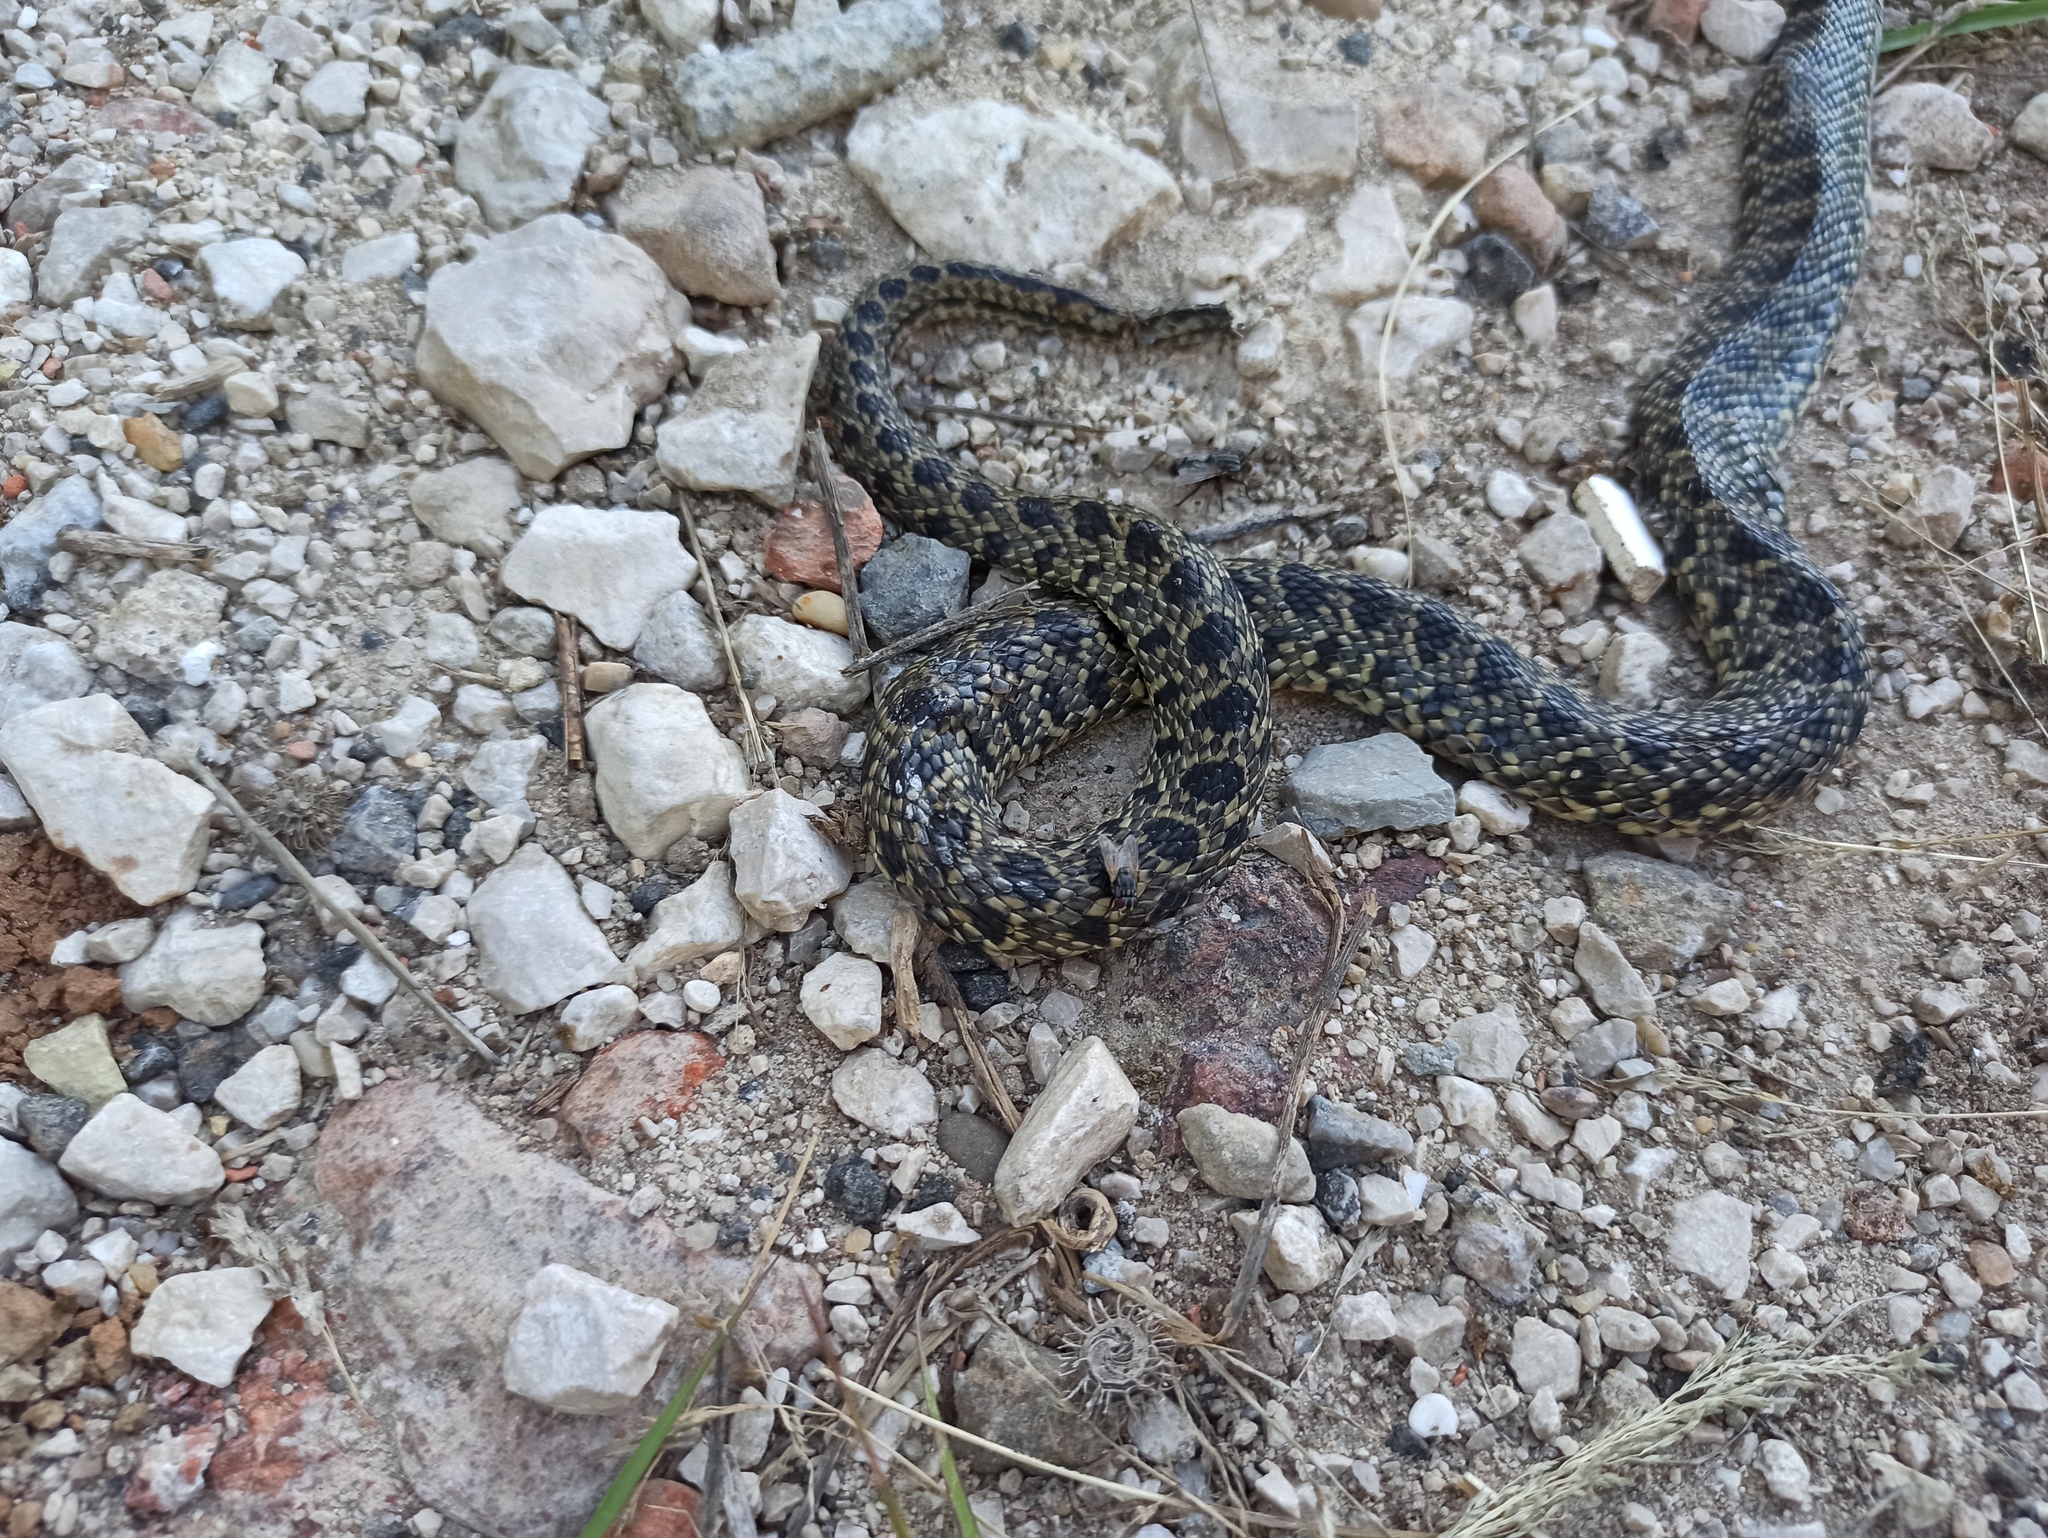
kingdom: Animalia
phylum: Chordata
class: Squamata
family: Colubridae
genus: Hemorrhois
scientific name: Hemorrhois hippocrepis
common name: Horseshoe whip snake
